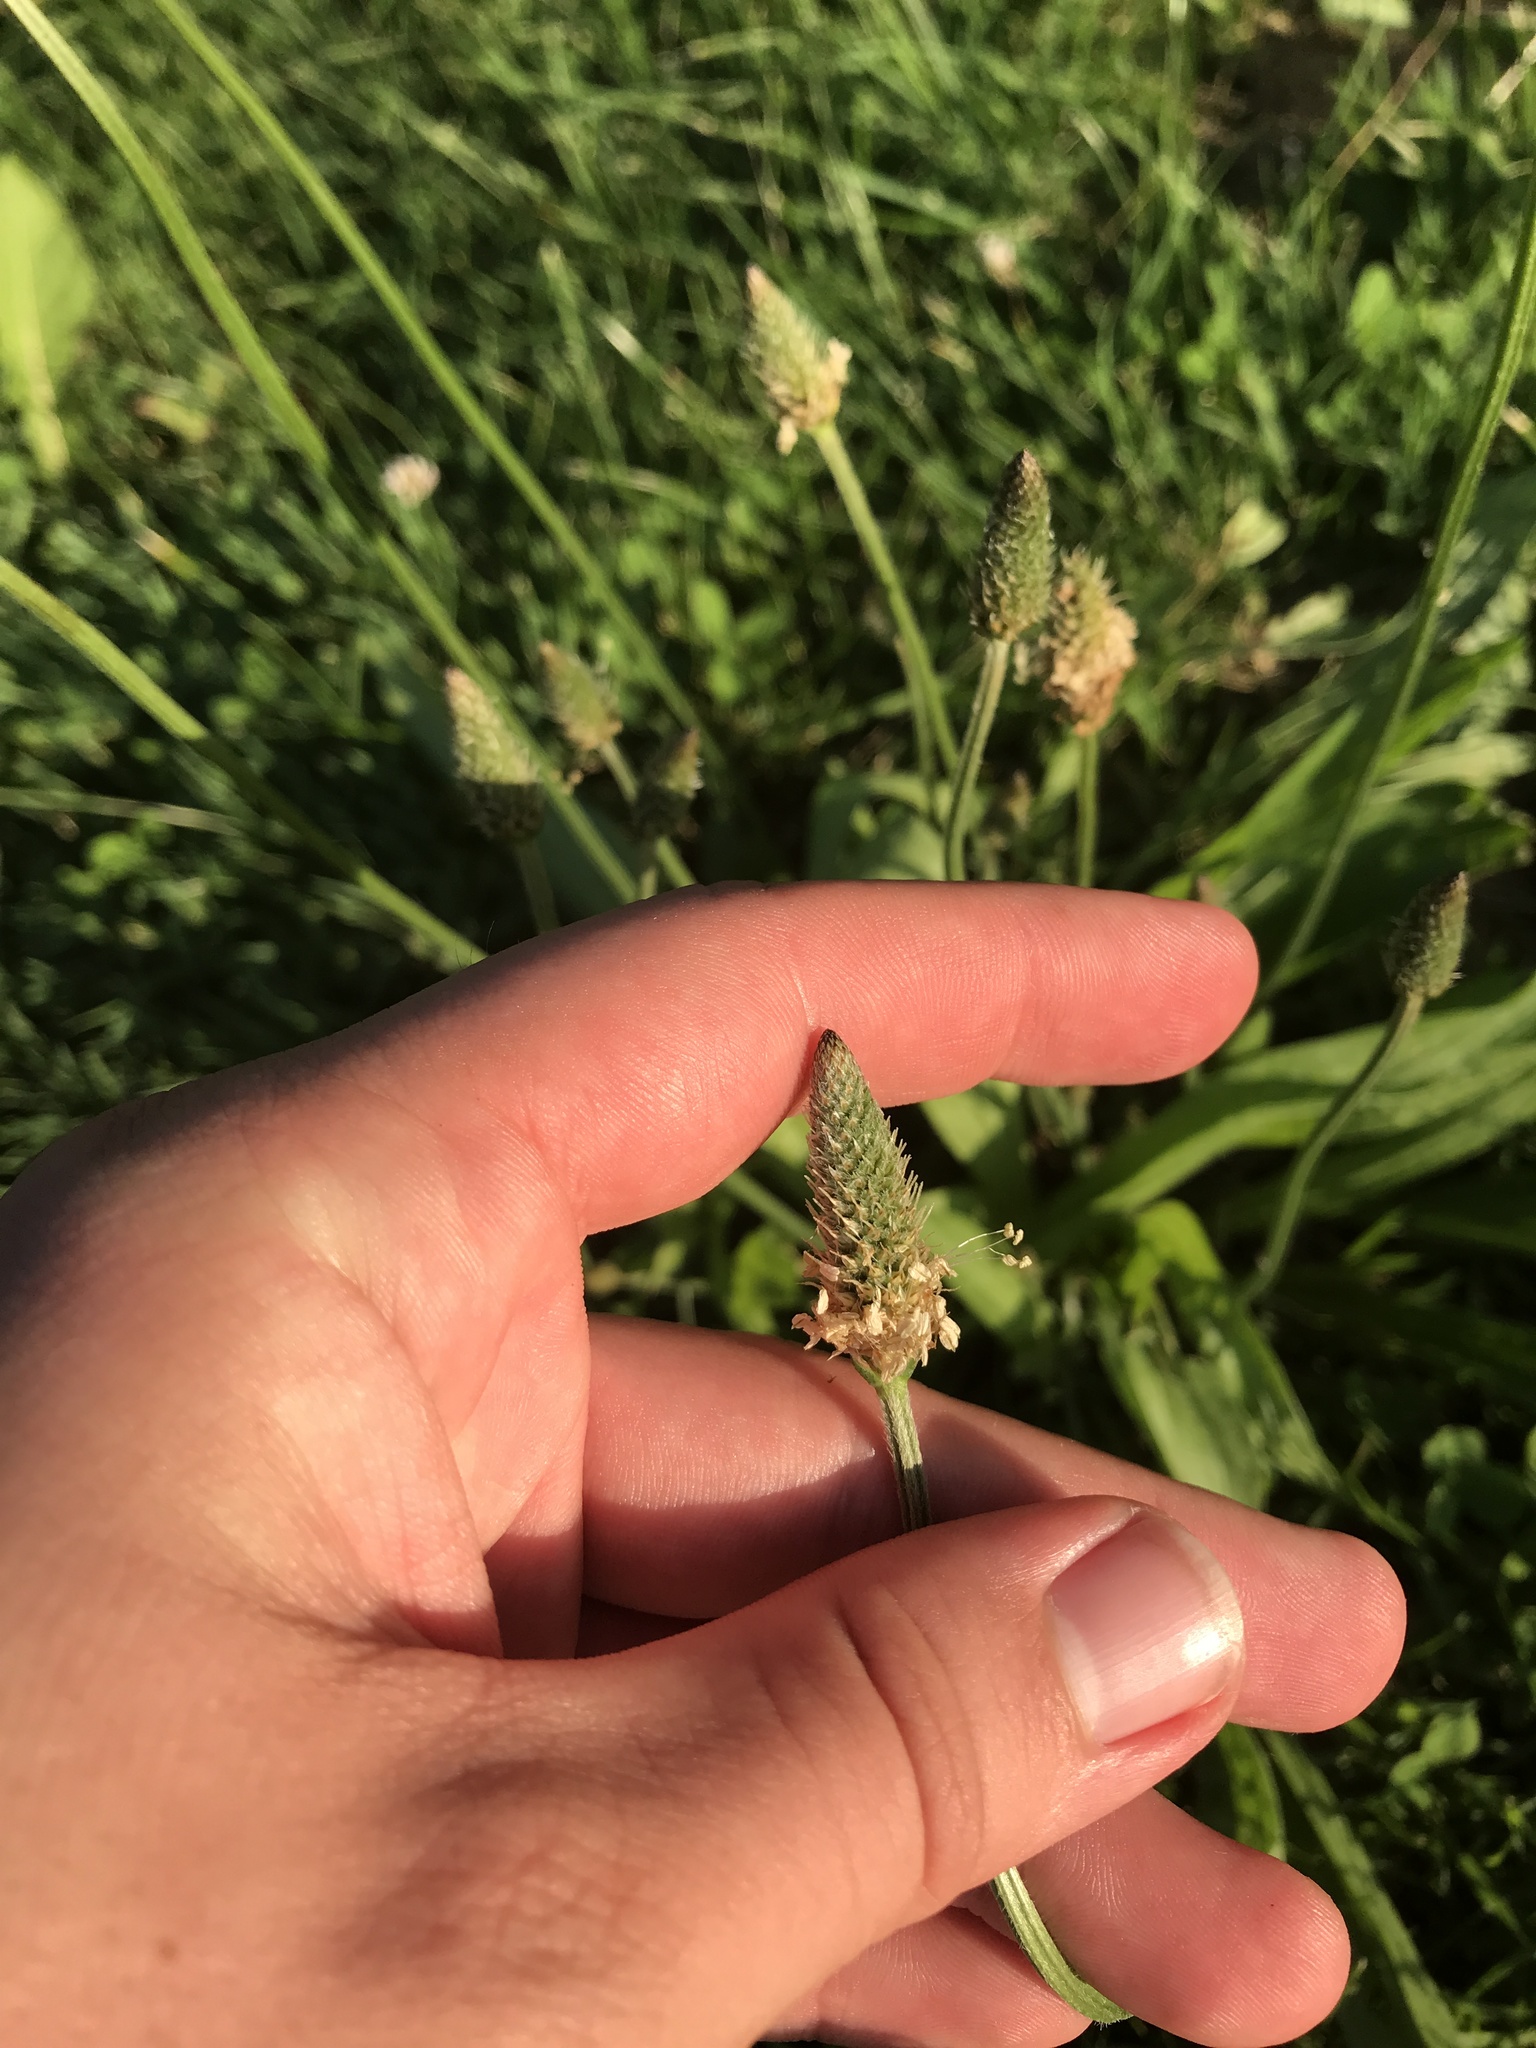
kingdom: Plantae
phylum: Tracheophyta
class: Magnoliopsida
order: Lamiales
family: Plantaginaceae
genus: Plantago
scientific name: Plantago lanceolata
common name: Ribwort plantain
